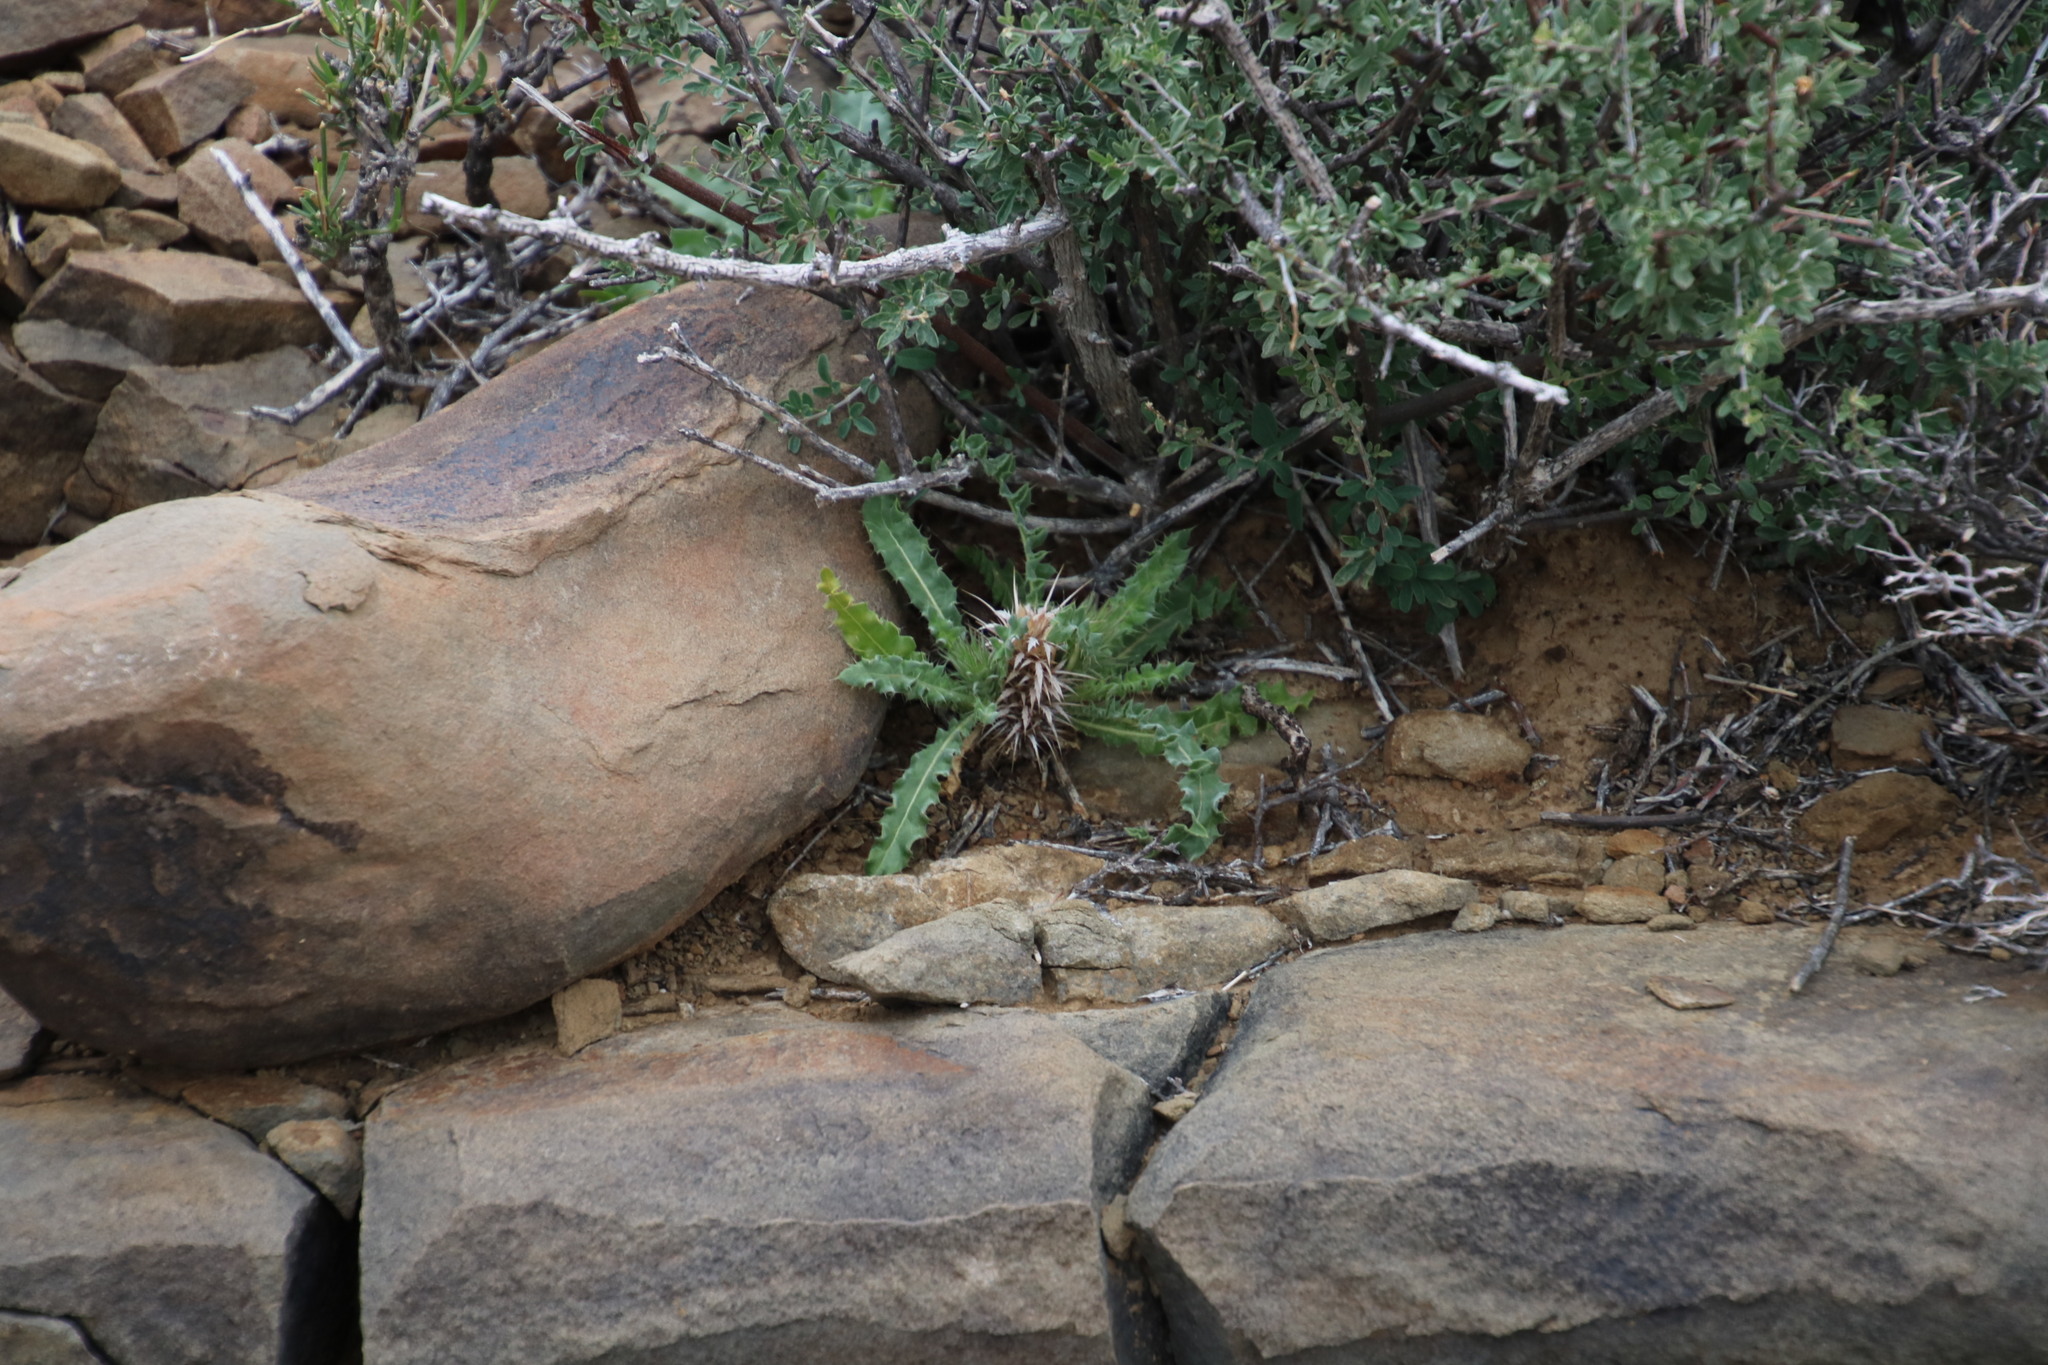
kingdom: Plantae
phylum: Tracheophyta
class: Magnoliopsida
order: Lamiales
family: Acanthaceae
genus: Acanthopsis
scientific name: Acanthopsis hoffmannseggiana
